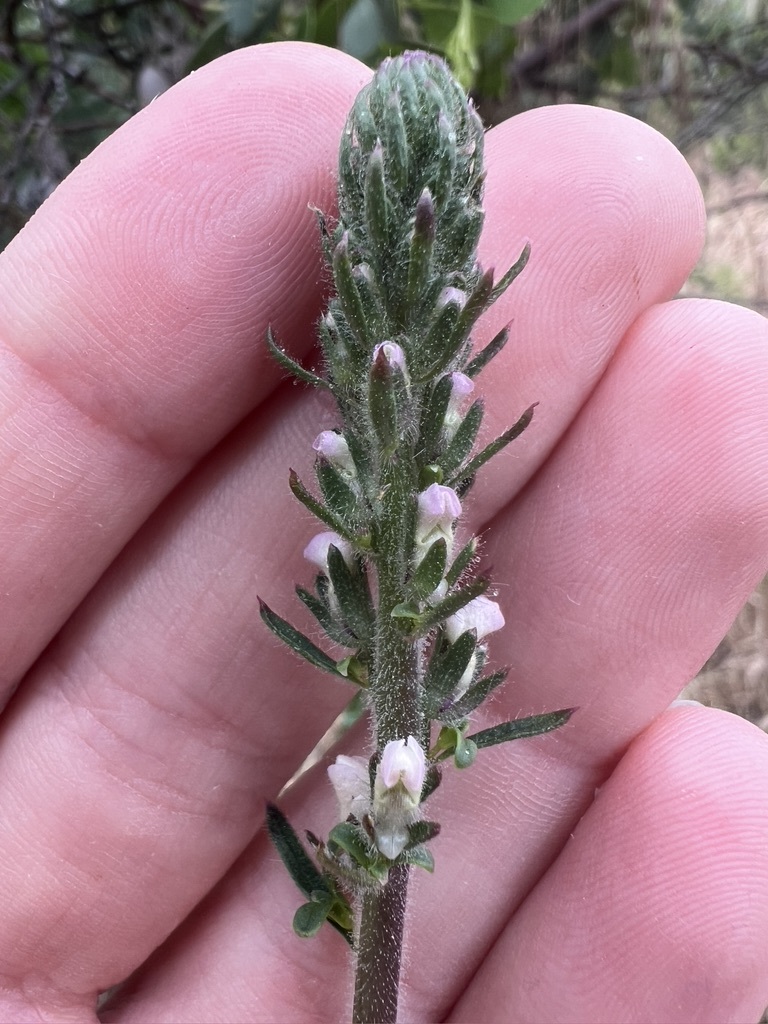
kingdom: Plantae
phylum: Tracheophyta
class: Magnoliopsida
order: Lamiales
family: Plantaginaceae
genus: Sairocarpus
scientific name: Sairocarpus coulterianus
